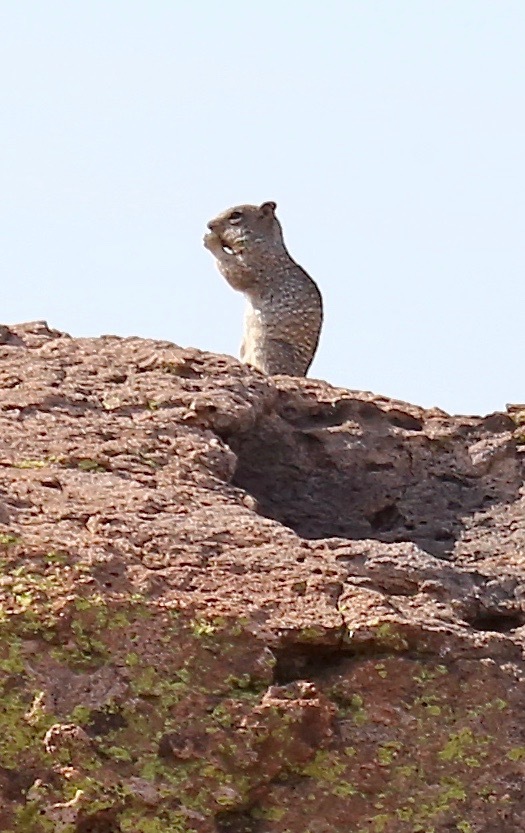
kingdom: Animalia
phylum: Chordata
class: Mammalia
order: Rodentia
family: Sciuridae
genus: Otospermophilus
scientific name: Otospermophilus variegatus
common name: Rock squirrel
